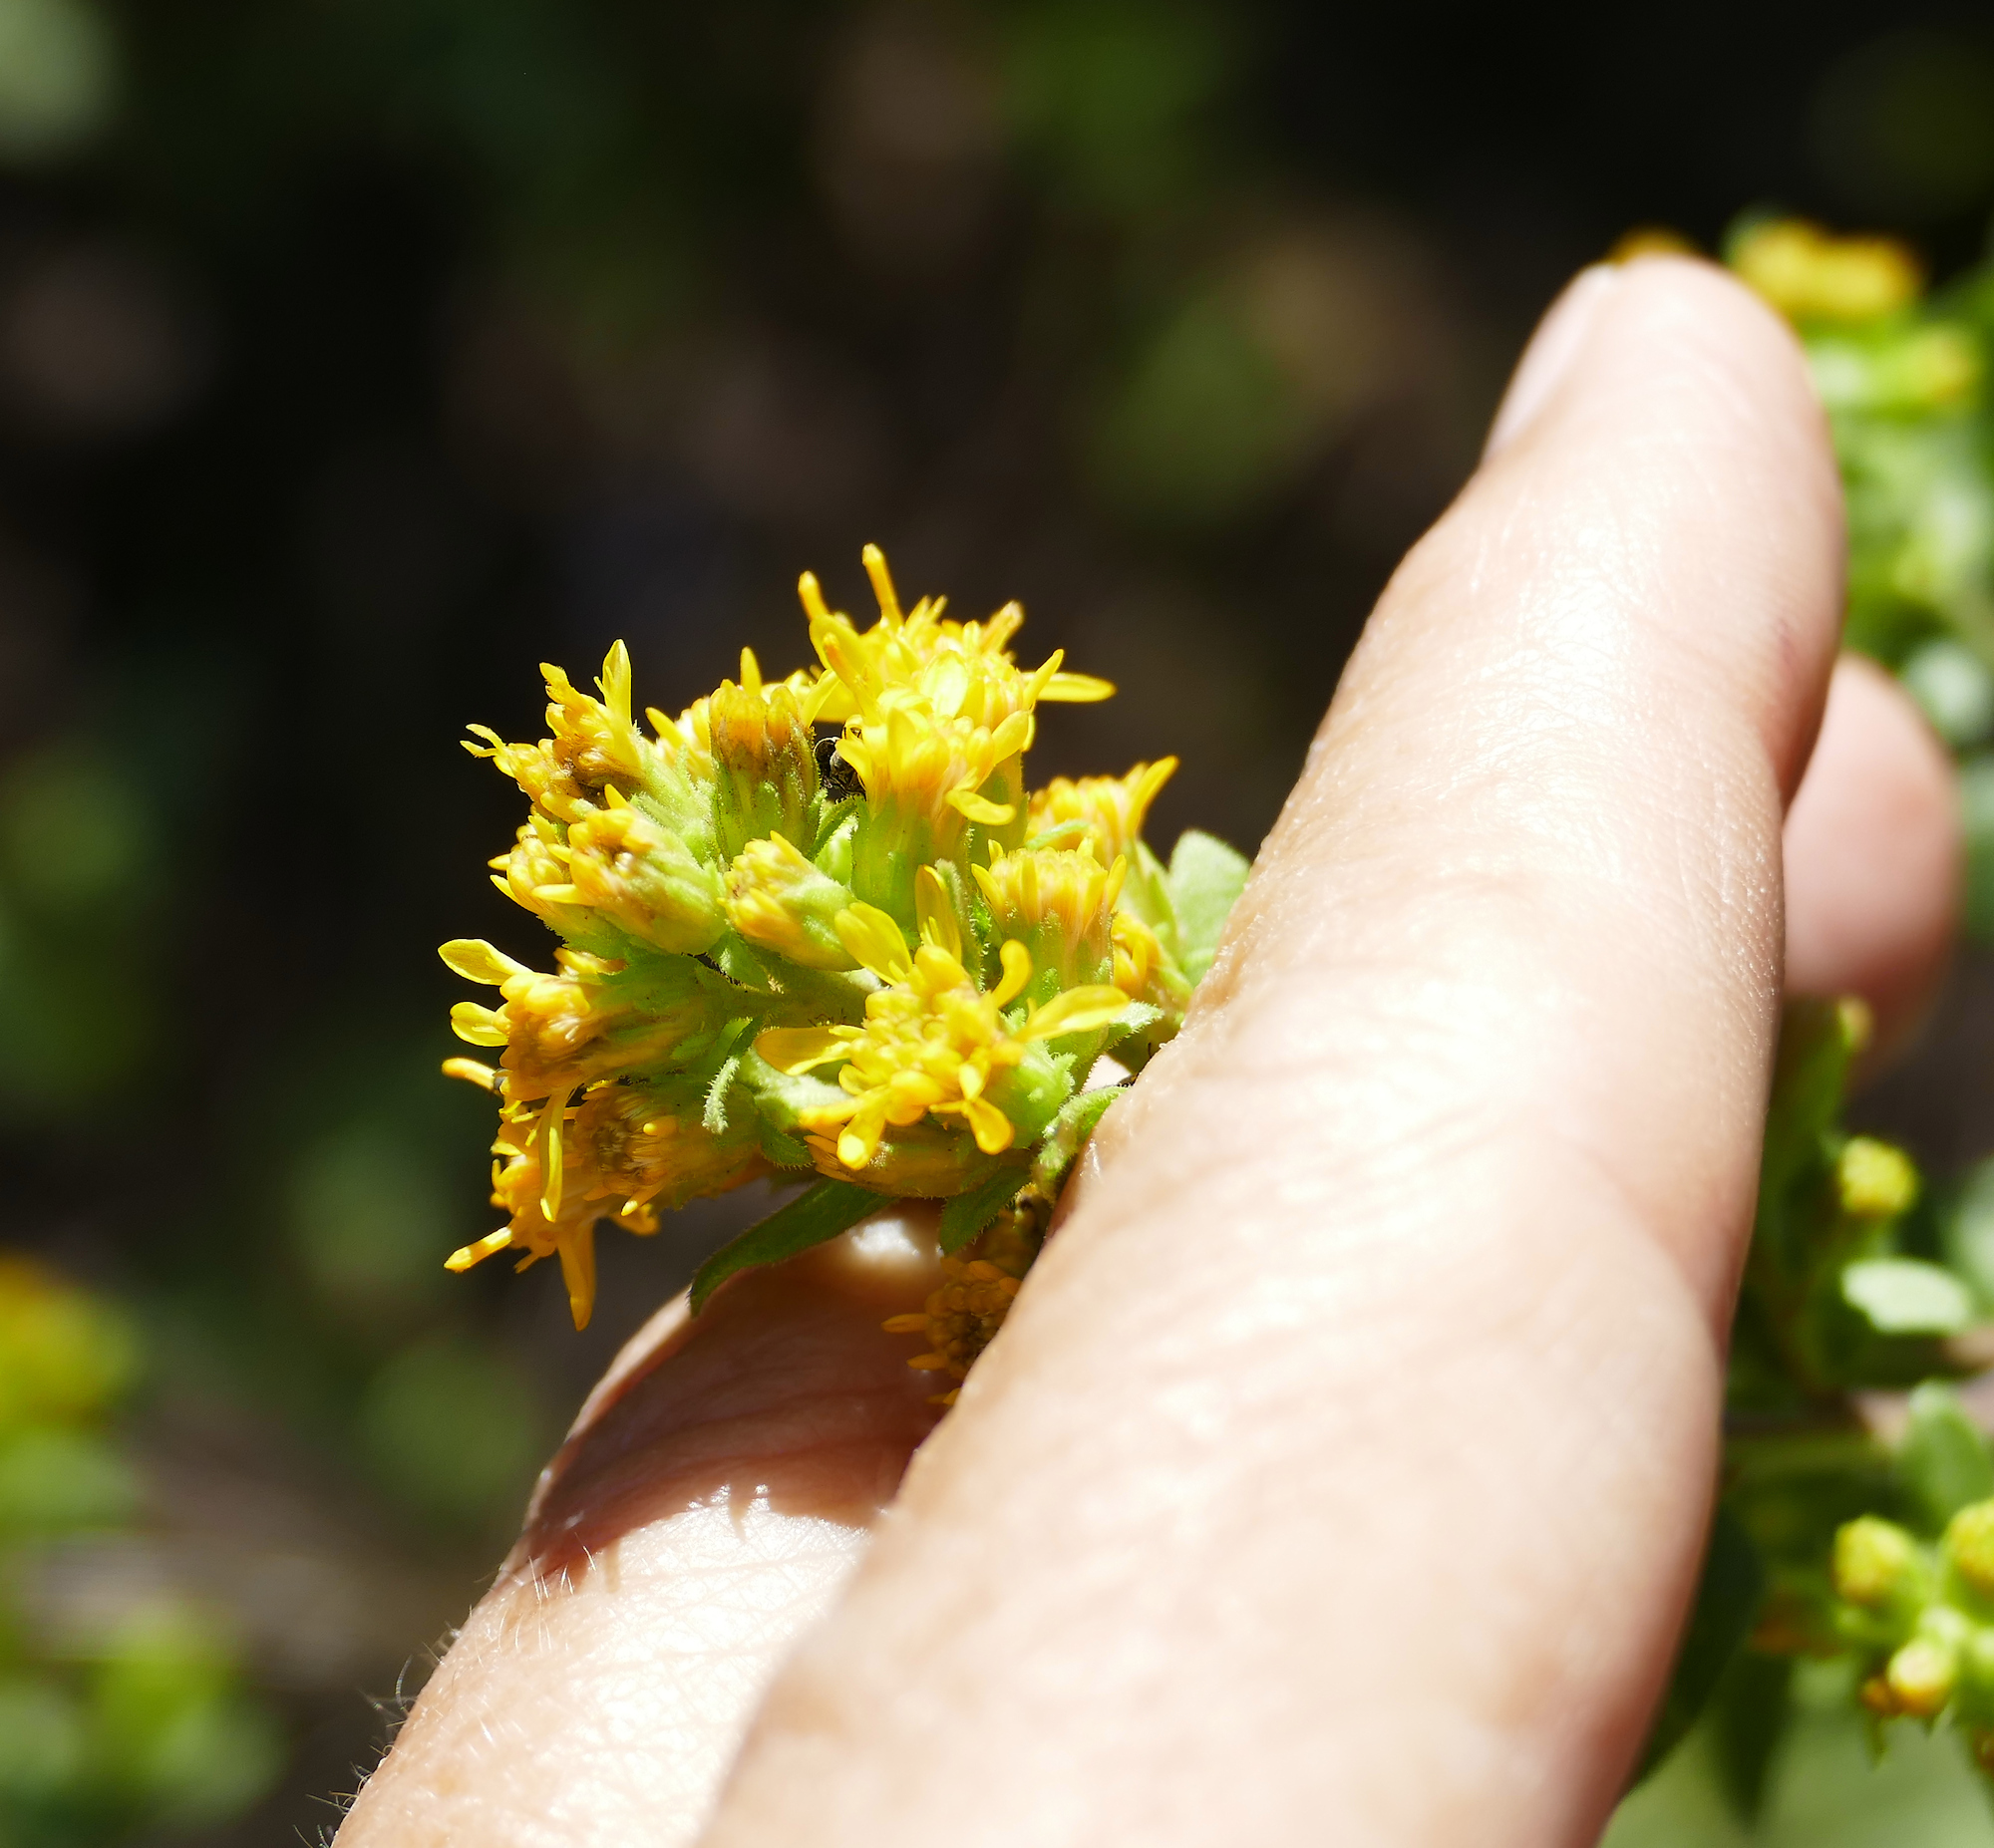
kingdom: Plantae
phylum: Tracheophyta
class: Magnoliopsida
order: Asterales
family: Asteraceae
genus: Solidago
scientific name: Solidago wrightii
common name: Wright's goldenrod
